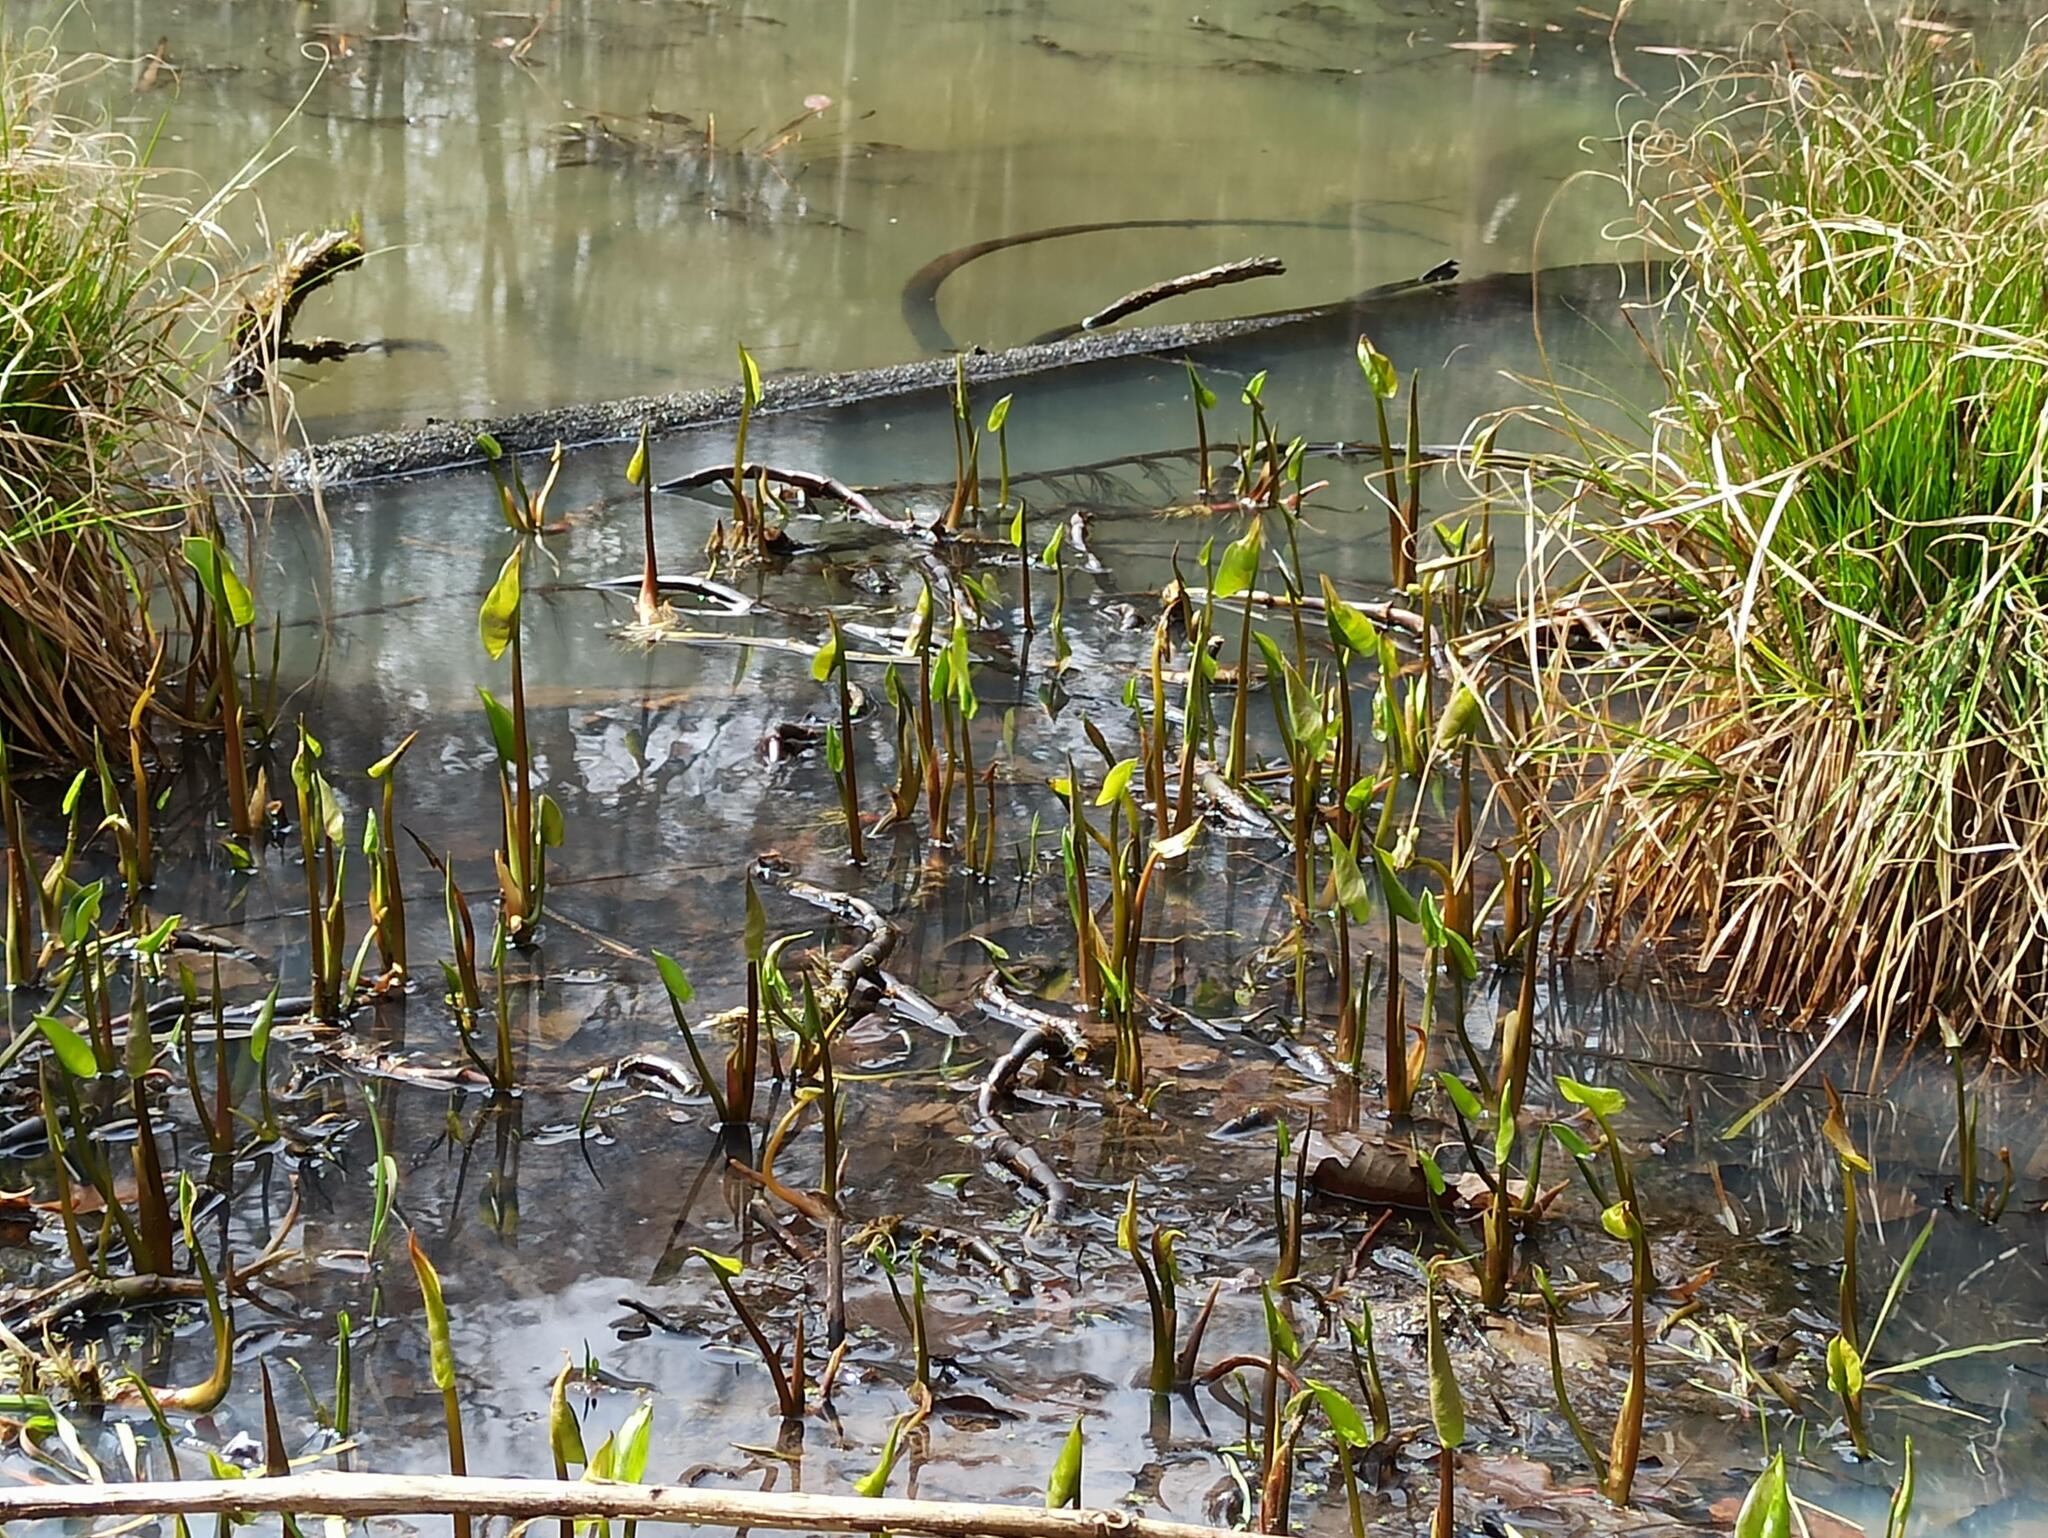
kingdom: Plantae
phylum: Tracheophyta
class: Liliopsida
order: Alismatales
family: Araceae
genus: Calla
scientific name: Calla palustris
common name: Bog arum
